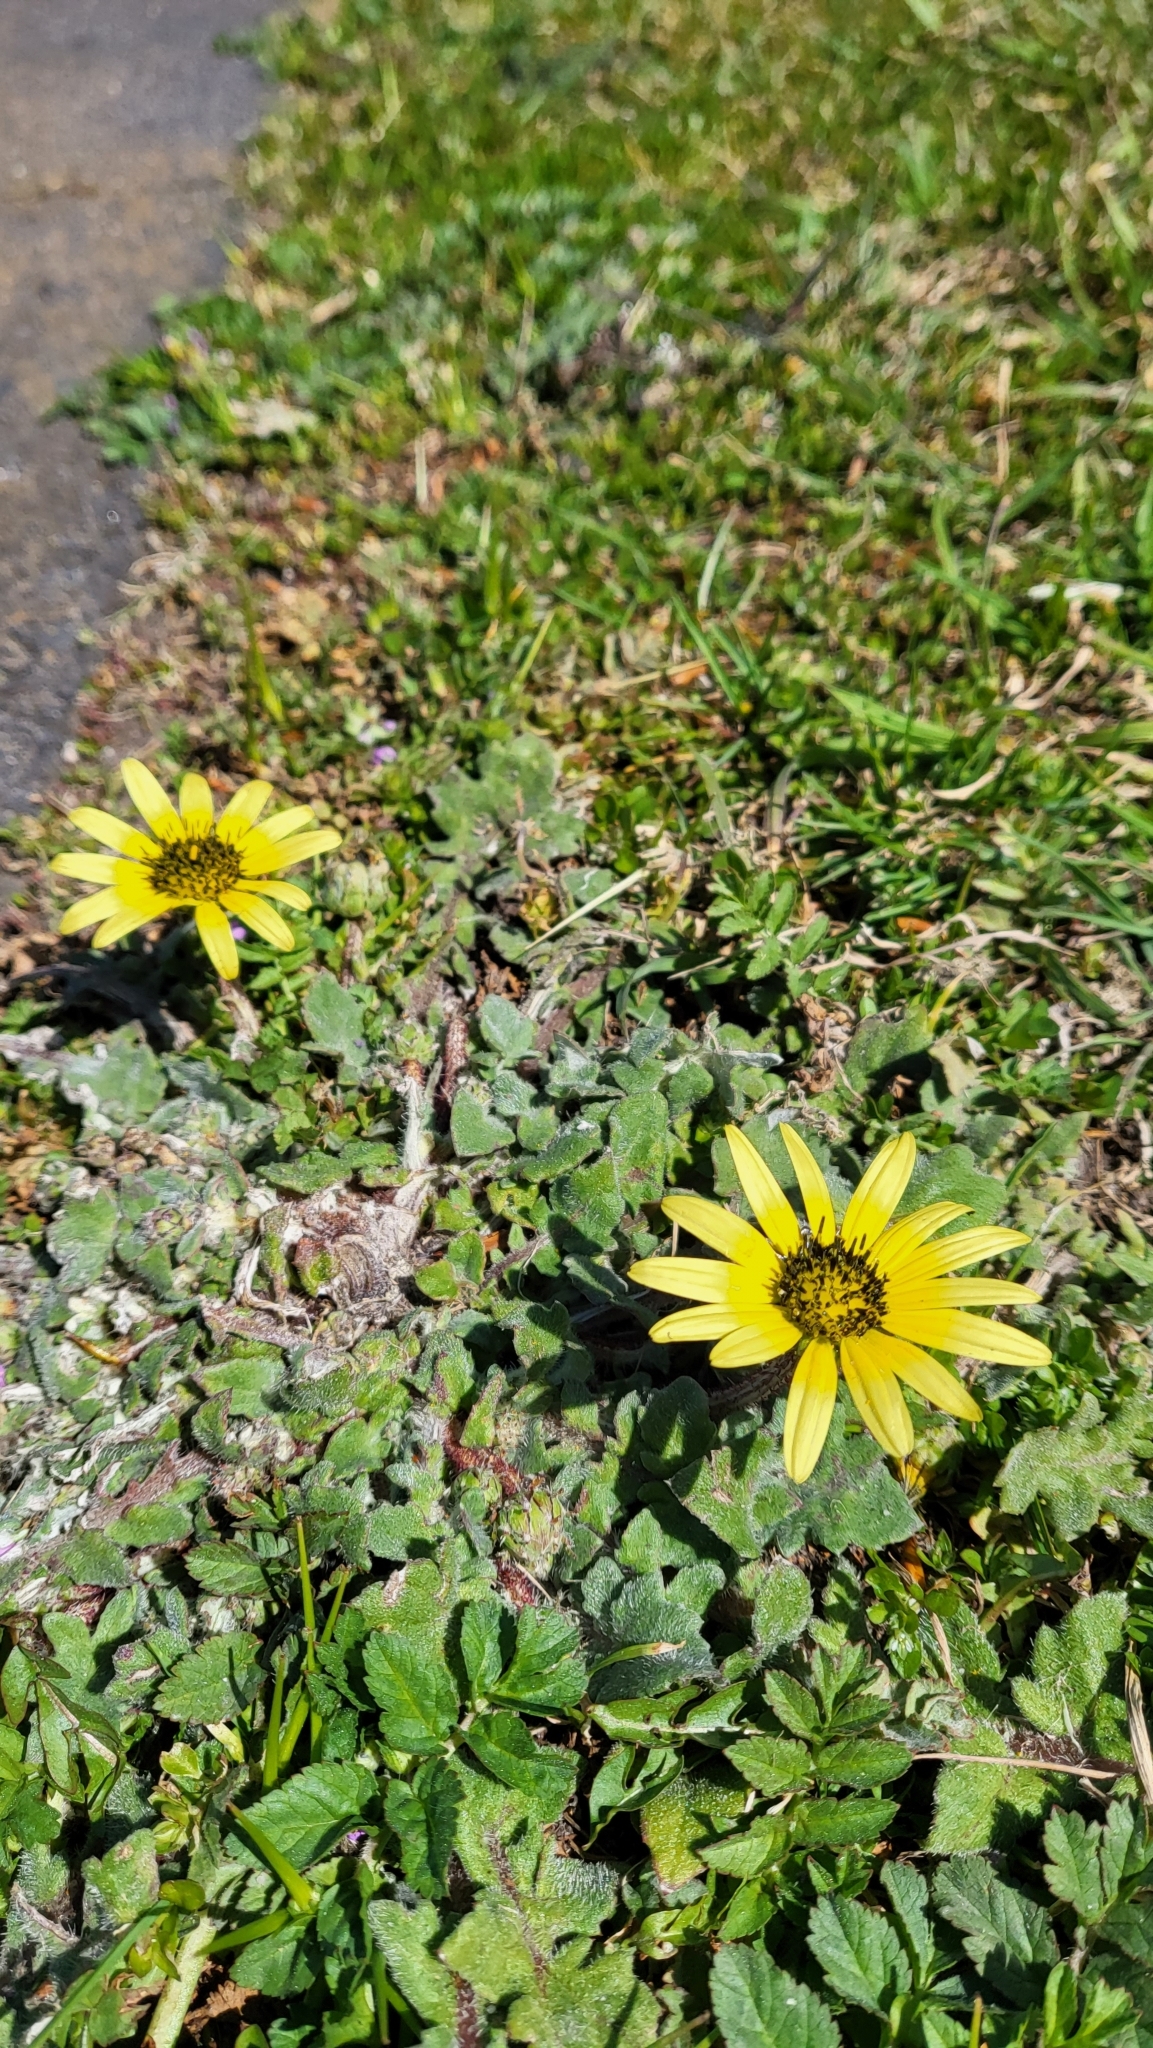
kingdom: Plantae
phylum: Tracheophyta
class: Magnoliopsida
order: Asterales
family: Asteraceae
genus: Arctotheca
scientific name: Arctotheca calendula
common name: Capeweed
